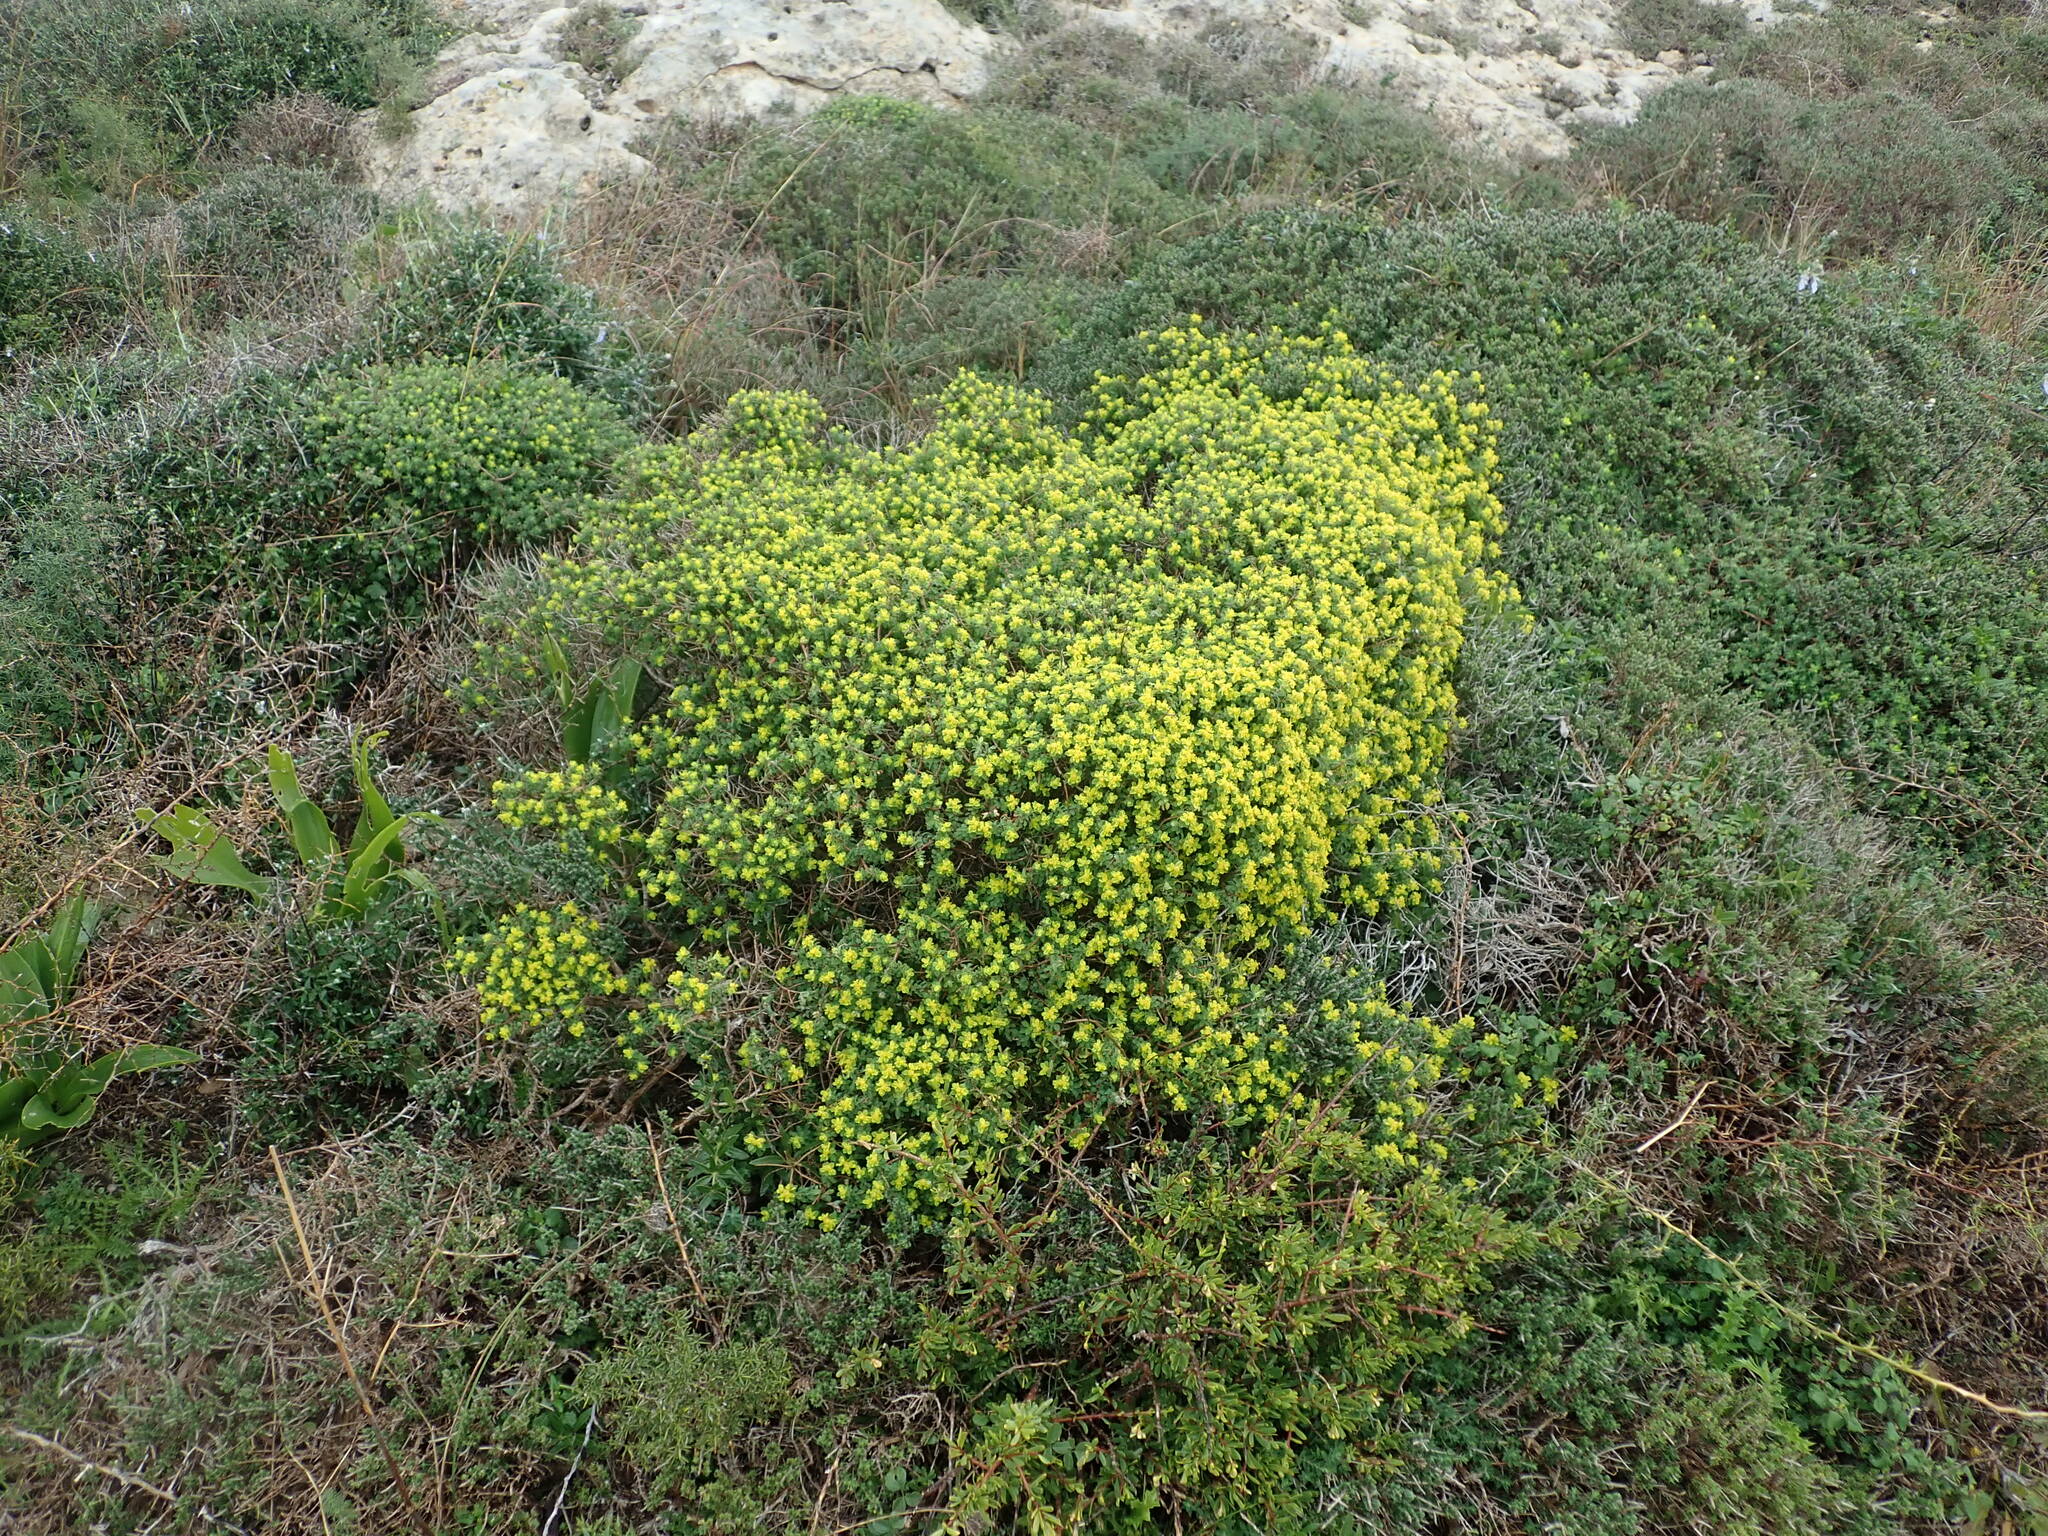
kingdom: Plantae
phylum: Tracheophyta
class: Magnoliopsida
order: Malpighiales
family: Euphorbiaceae
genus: Euphorbia
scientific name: Euphorbia melitensis
